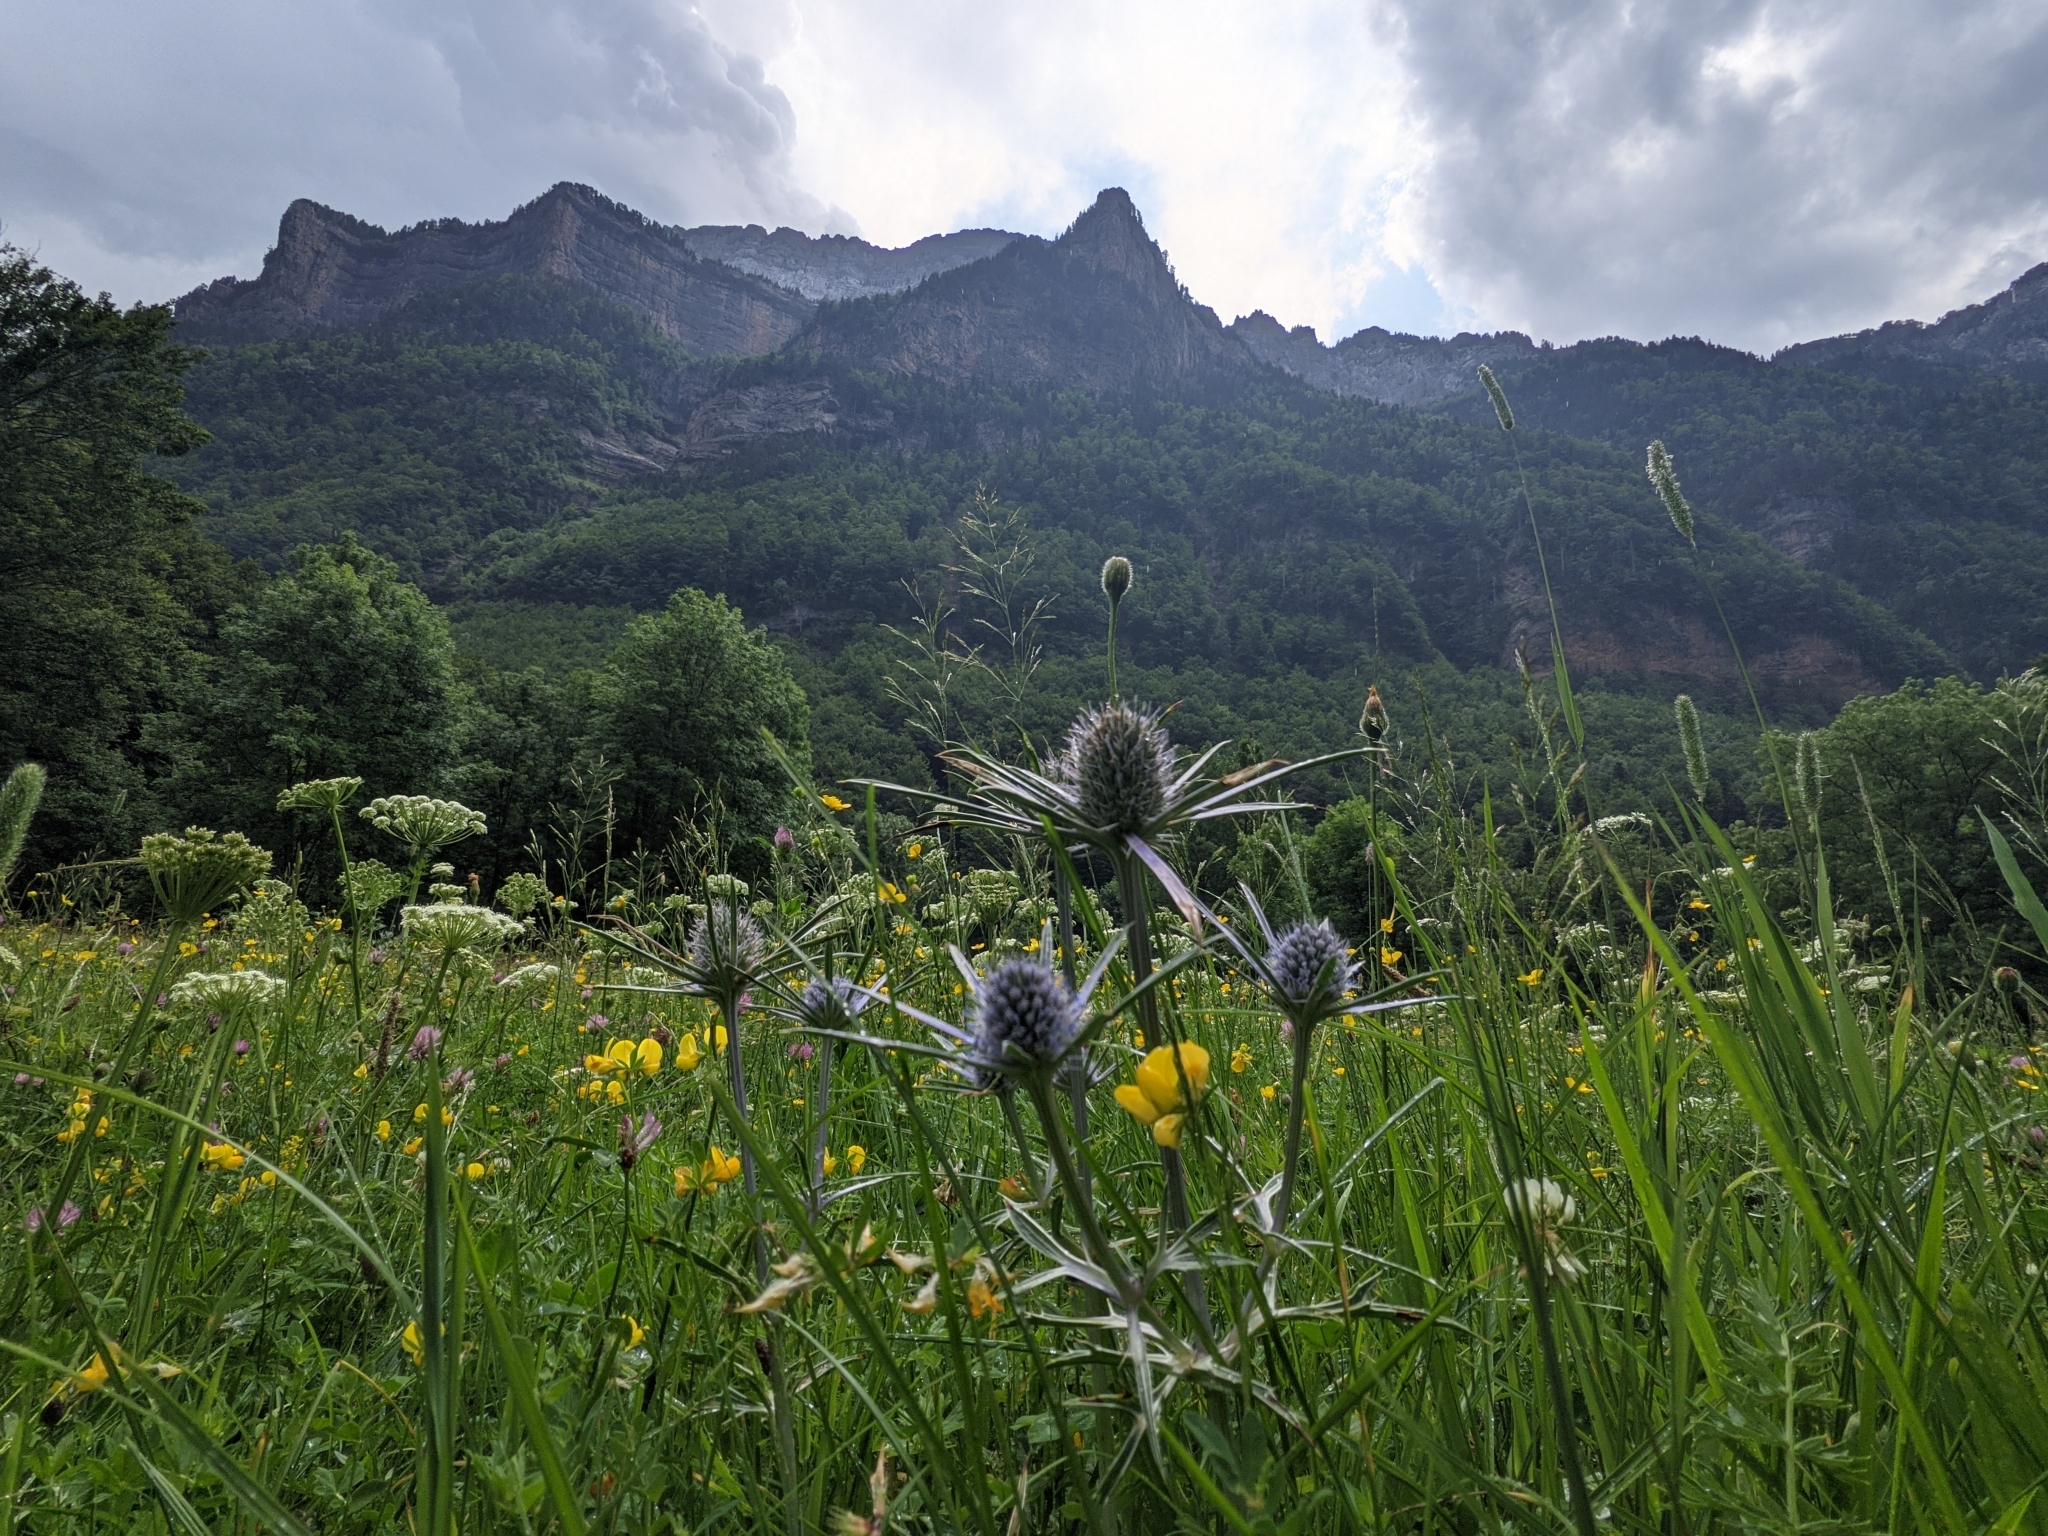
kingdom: Plantae
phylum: Tracheophyta
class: Magnoliopsida
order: Apiales
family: Apiaceae
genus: Eryngium
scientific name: Eryngium bourgatii
